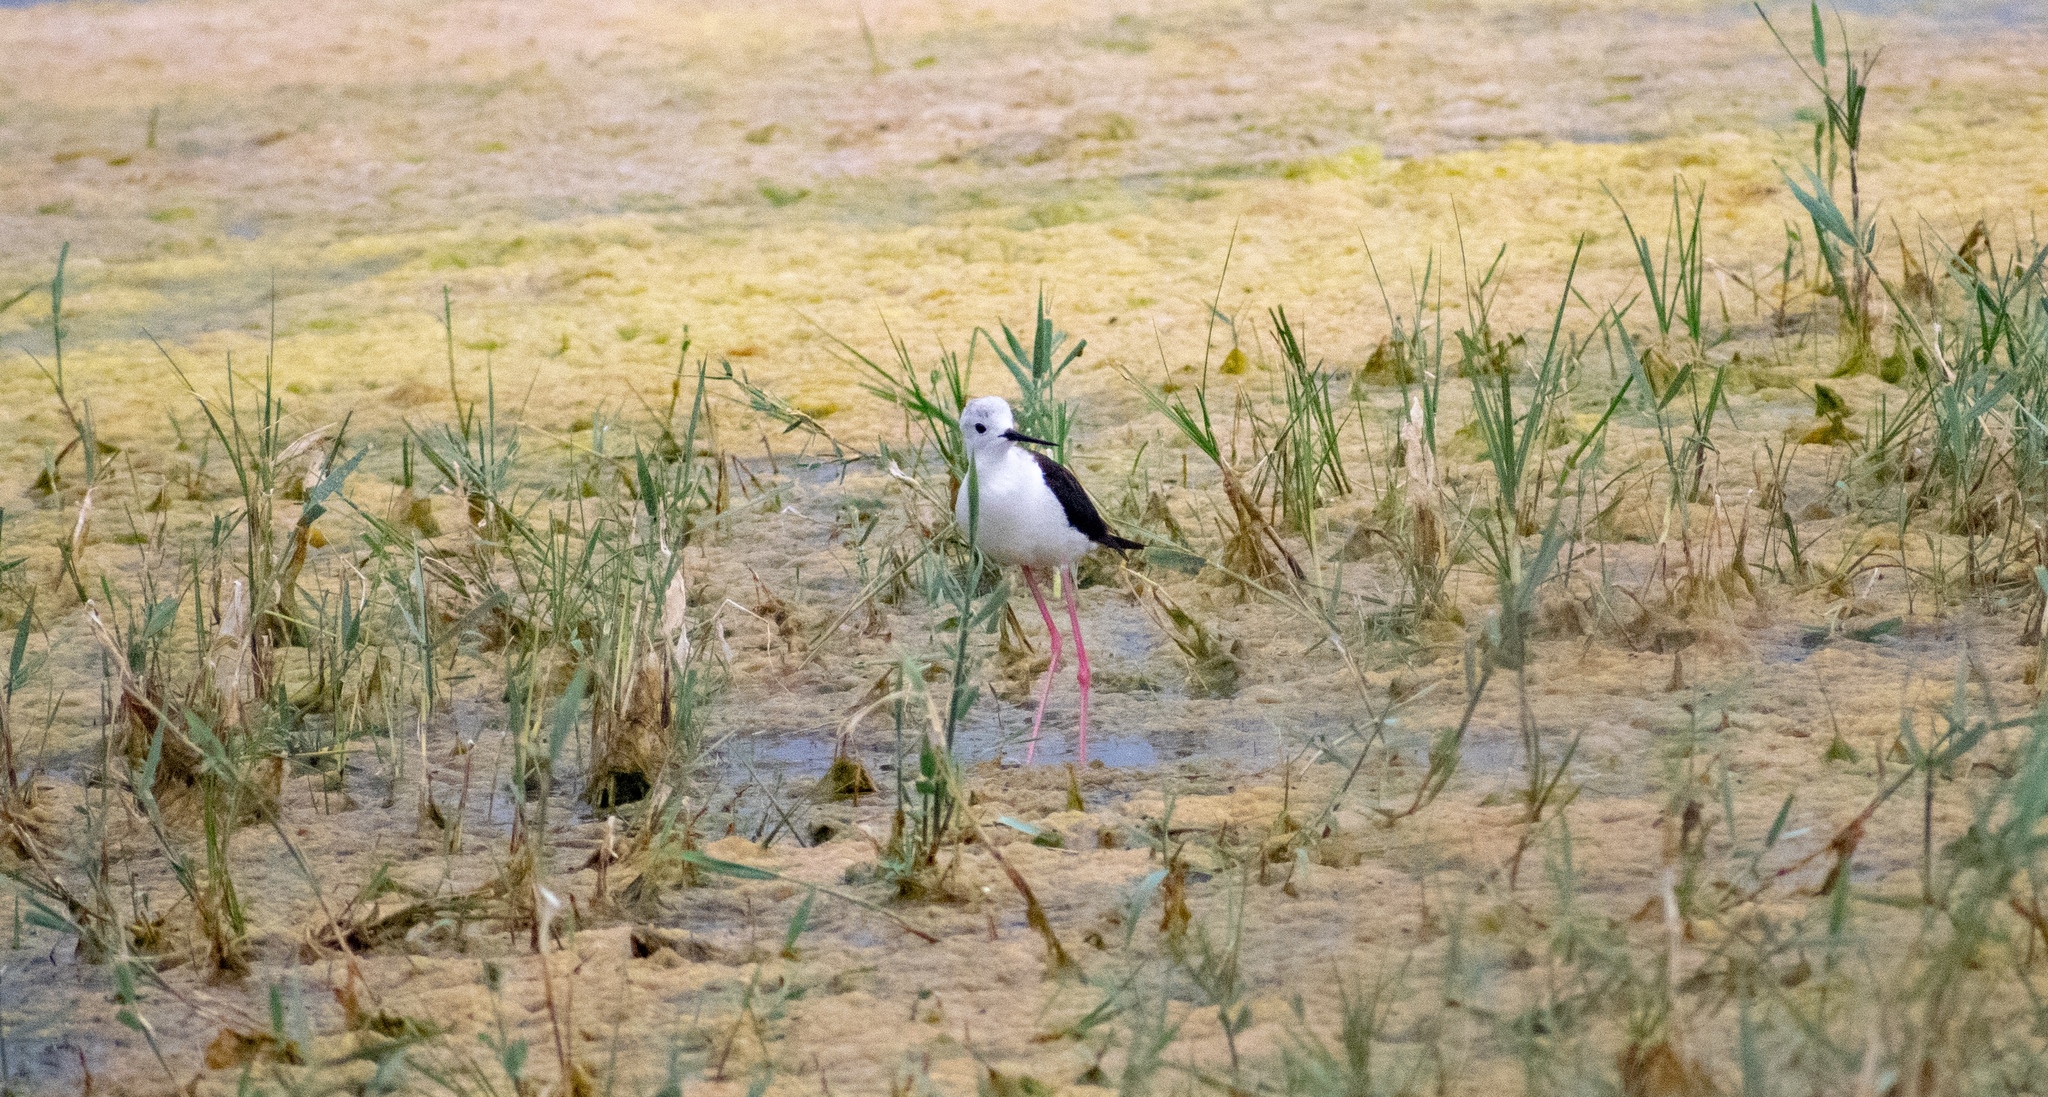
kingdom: Animalia
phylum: Chordata
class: Aves
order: Charadriiformes
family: Recurvirostridae
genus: Himantopus
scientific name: Himantopus himantopus
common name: Black-winged stilt
